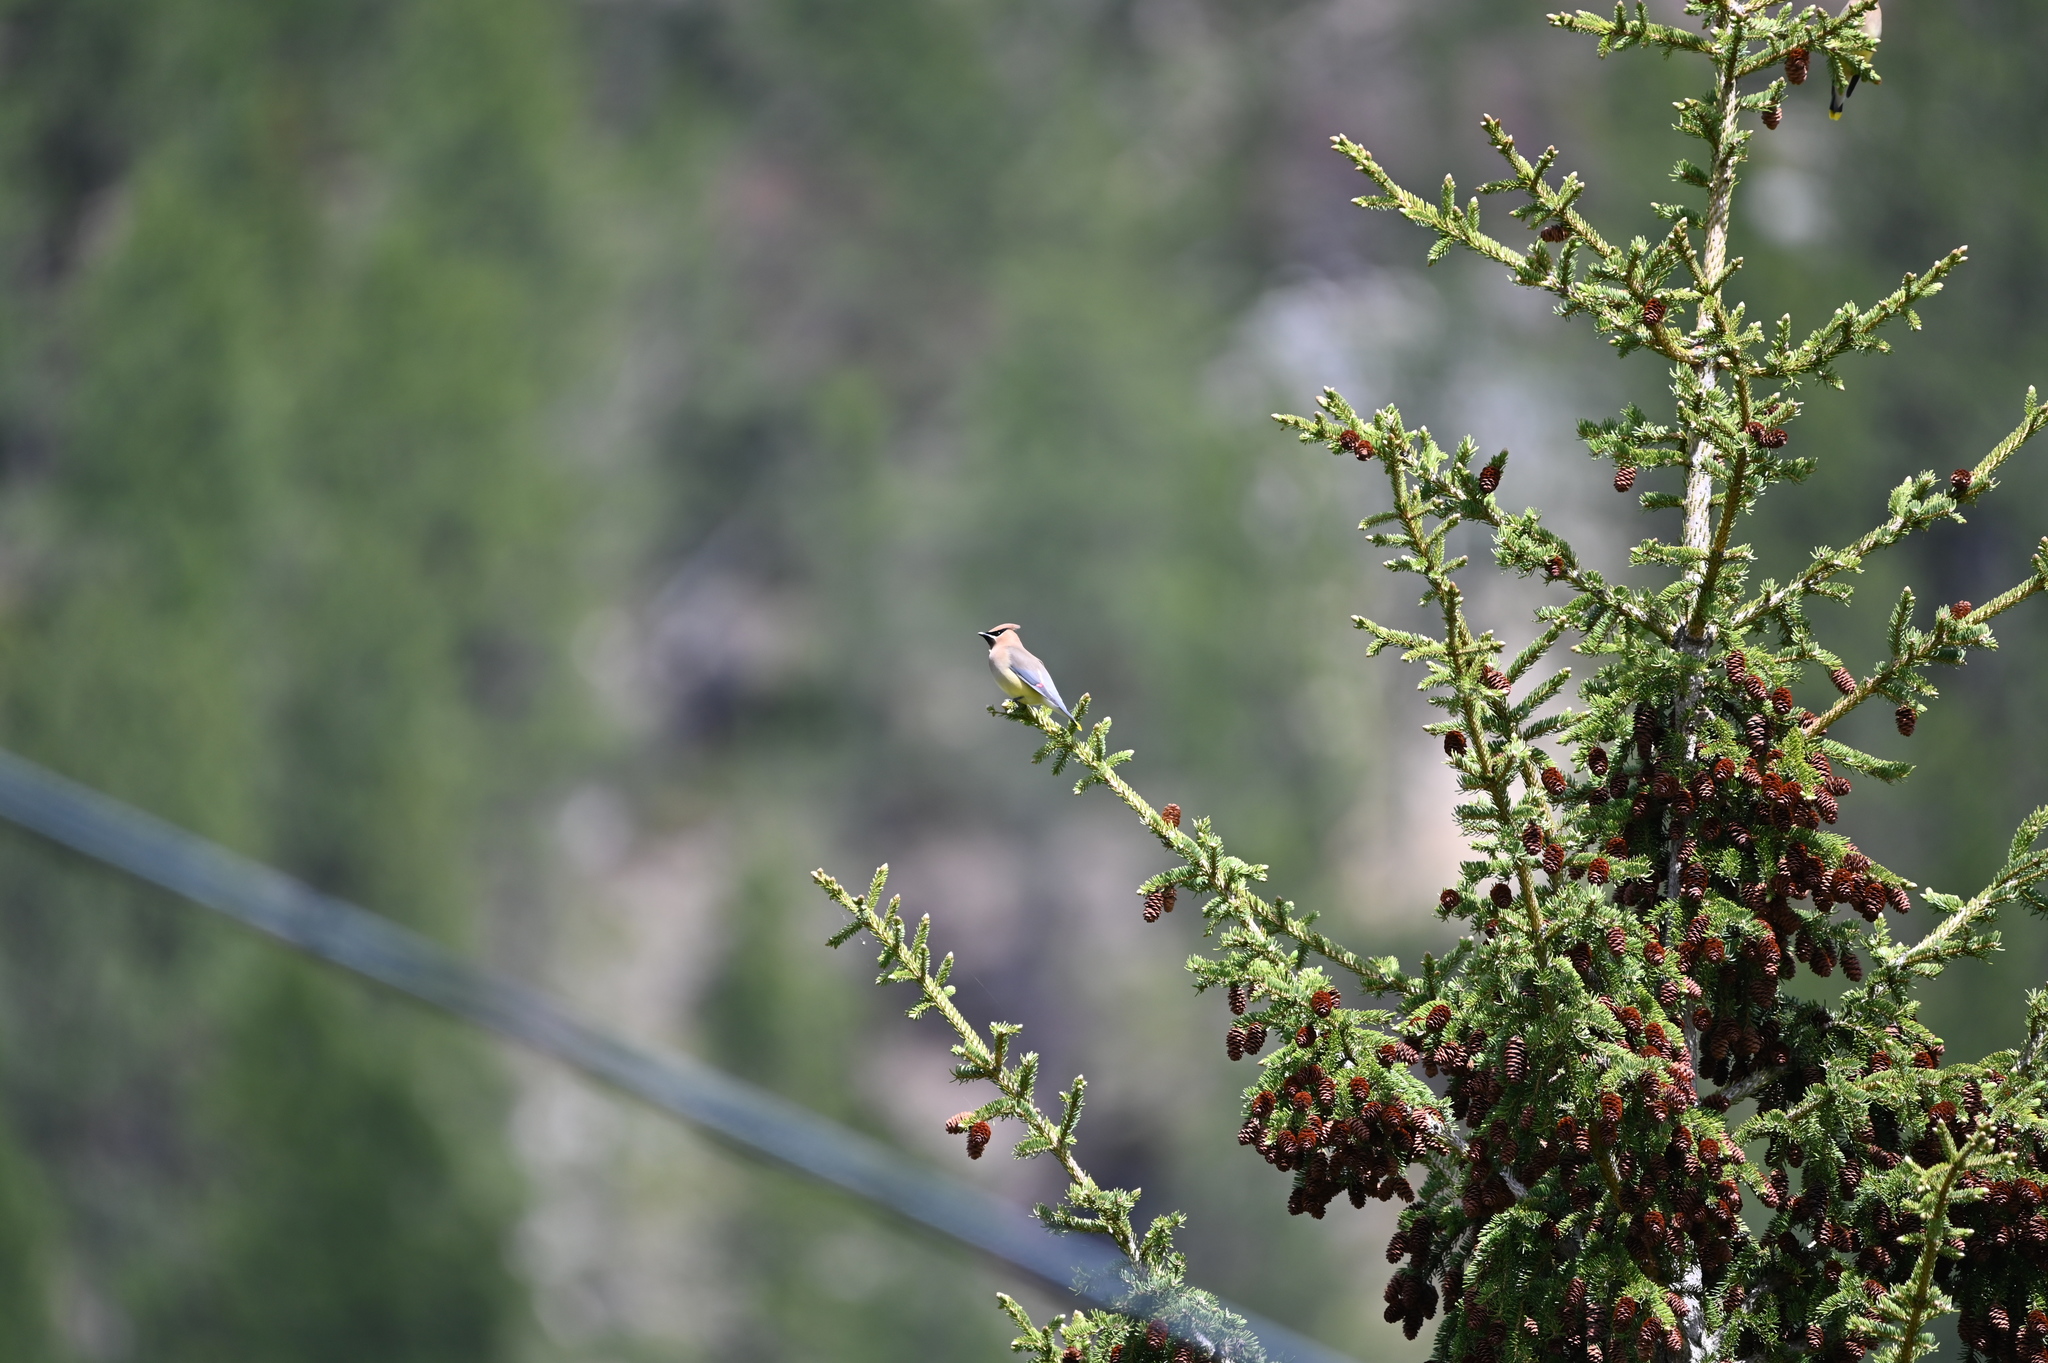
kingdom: Animalia
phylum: Chordata
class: Aves
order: Passeriformes
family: Bombycillidae
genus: Bombycilla
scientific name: Bombycilla cedrorum
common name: Cedar waxwing
